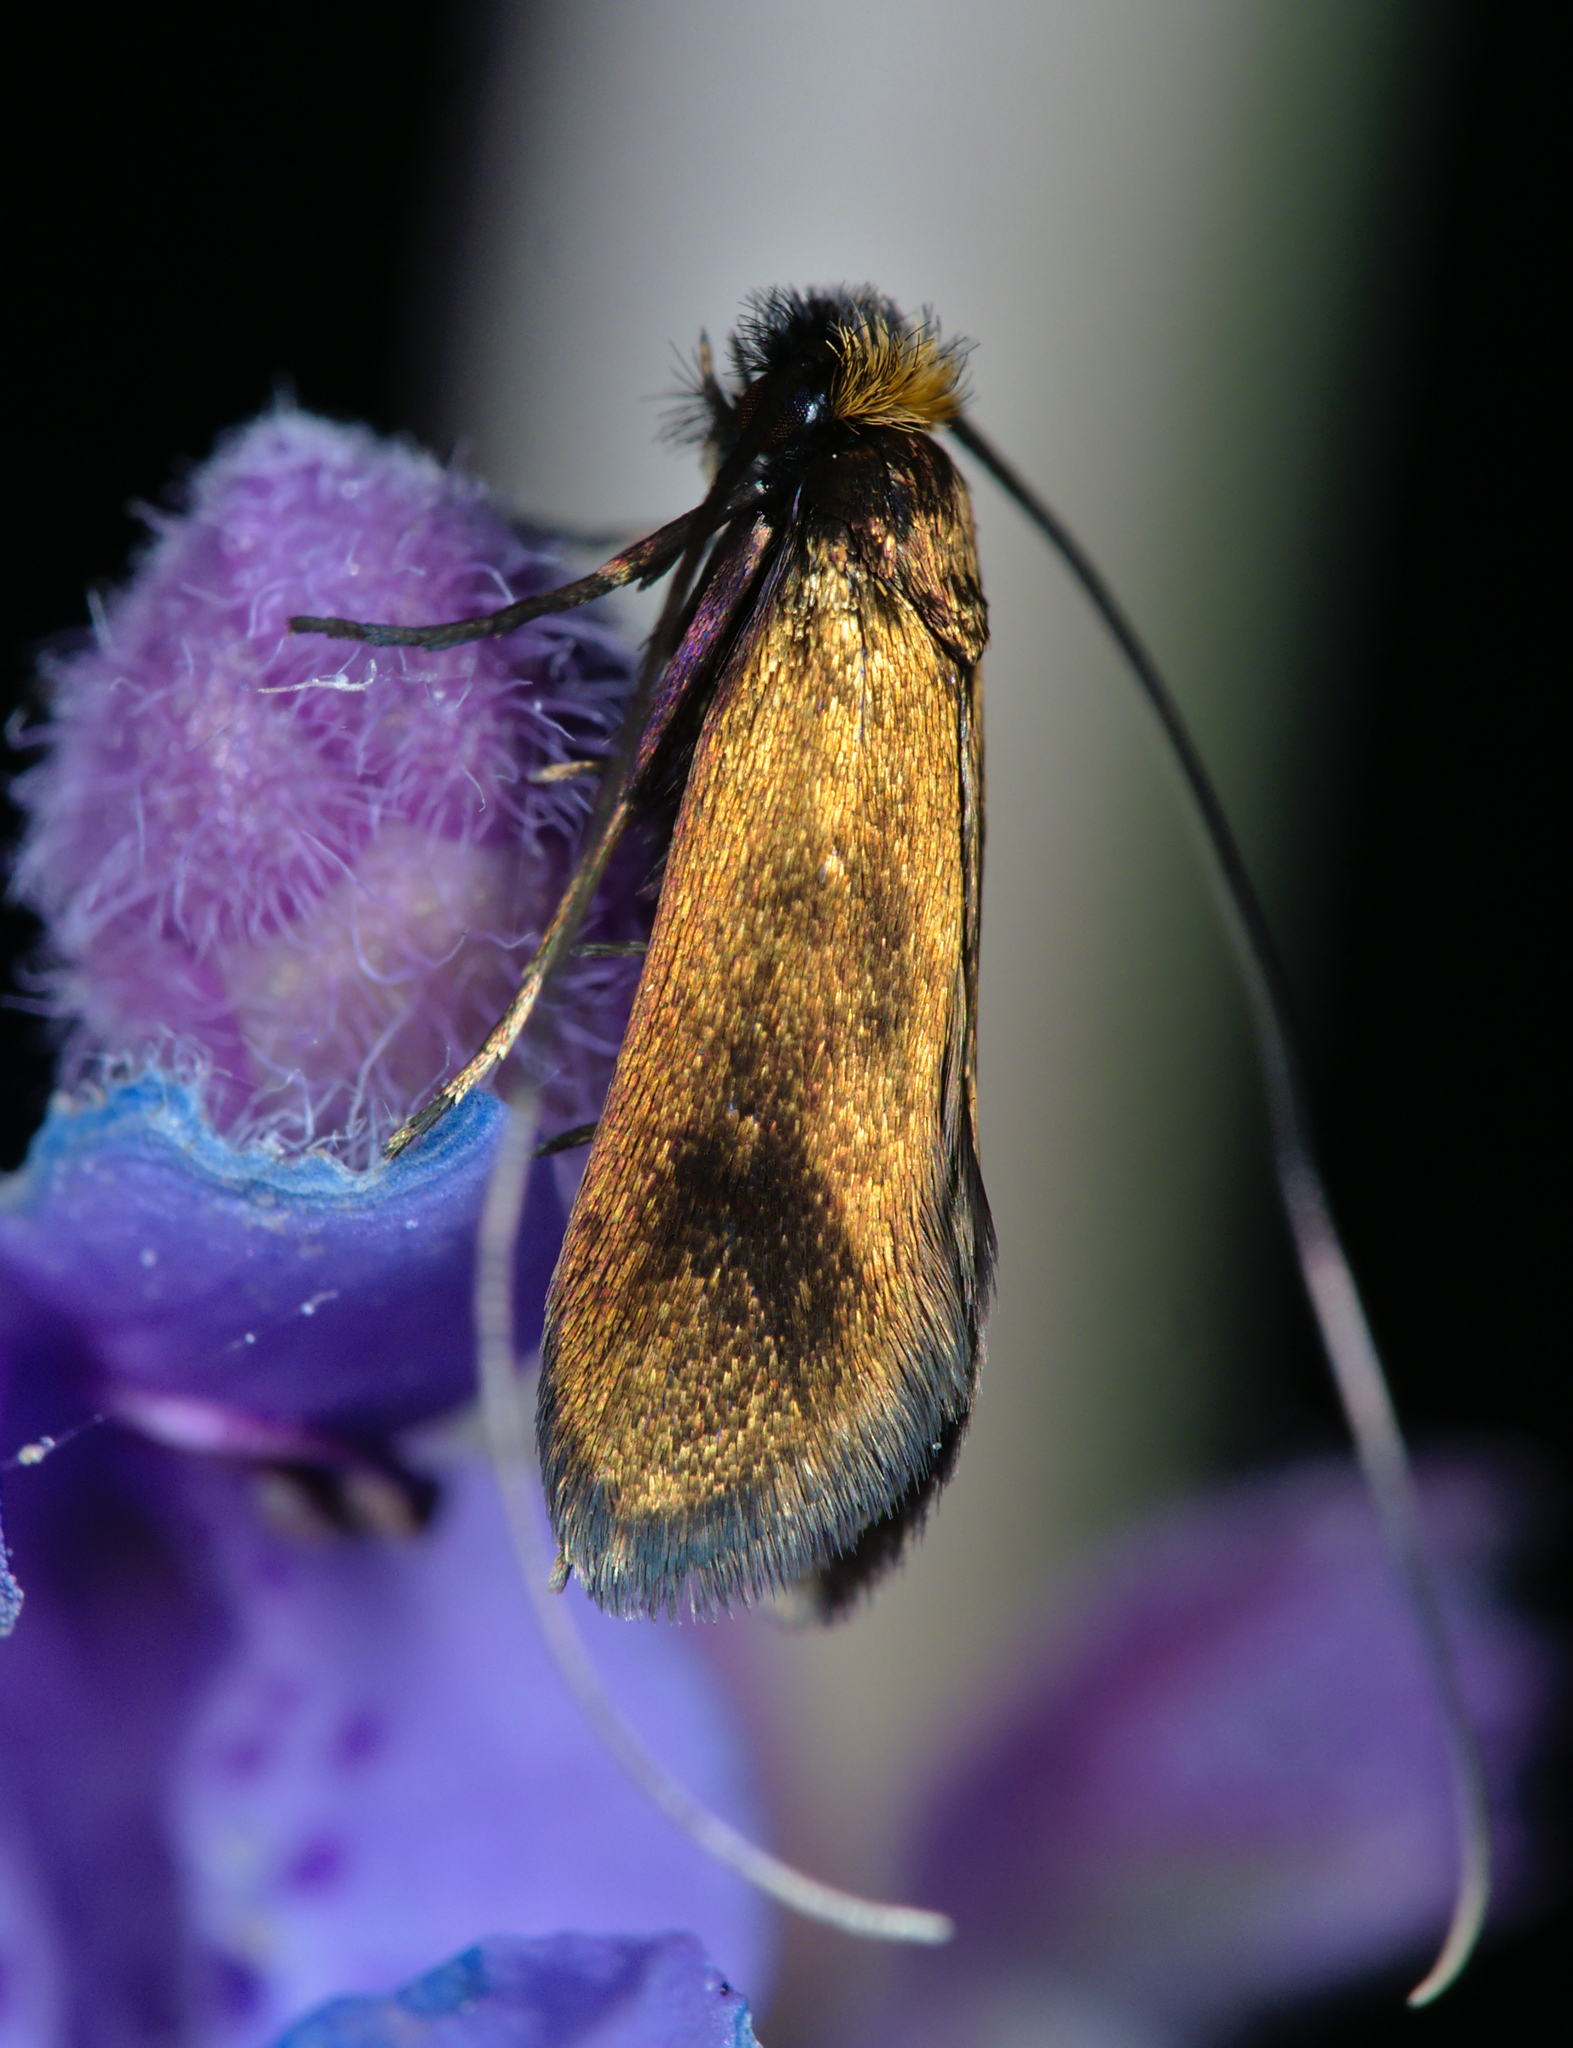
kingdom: Animalia
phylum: Arthropoda
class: Insecta
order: Lepidoptera
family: Adelidae
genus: Cauchas
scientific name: Cauchas rufimitrella
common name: Meadow long-horn
